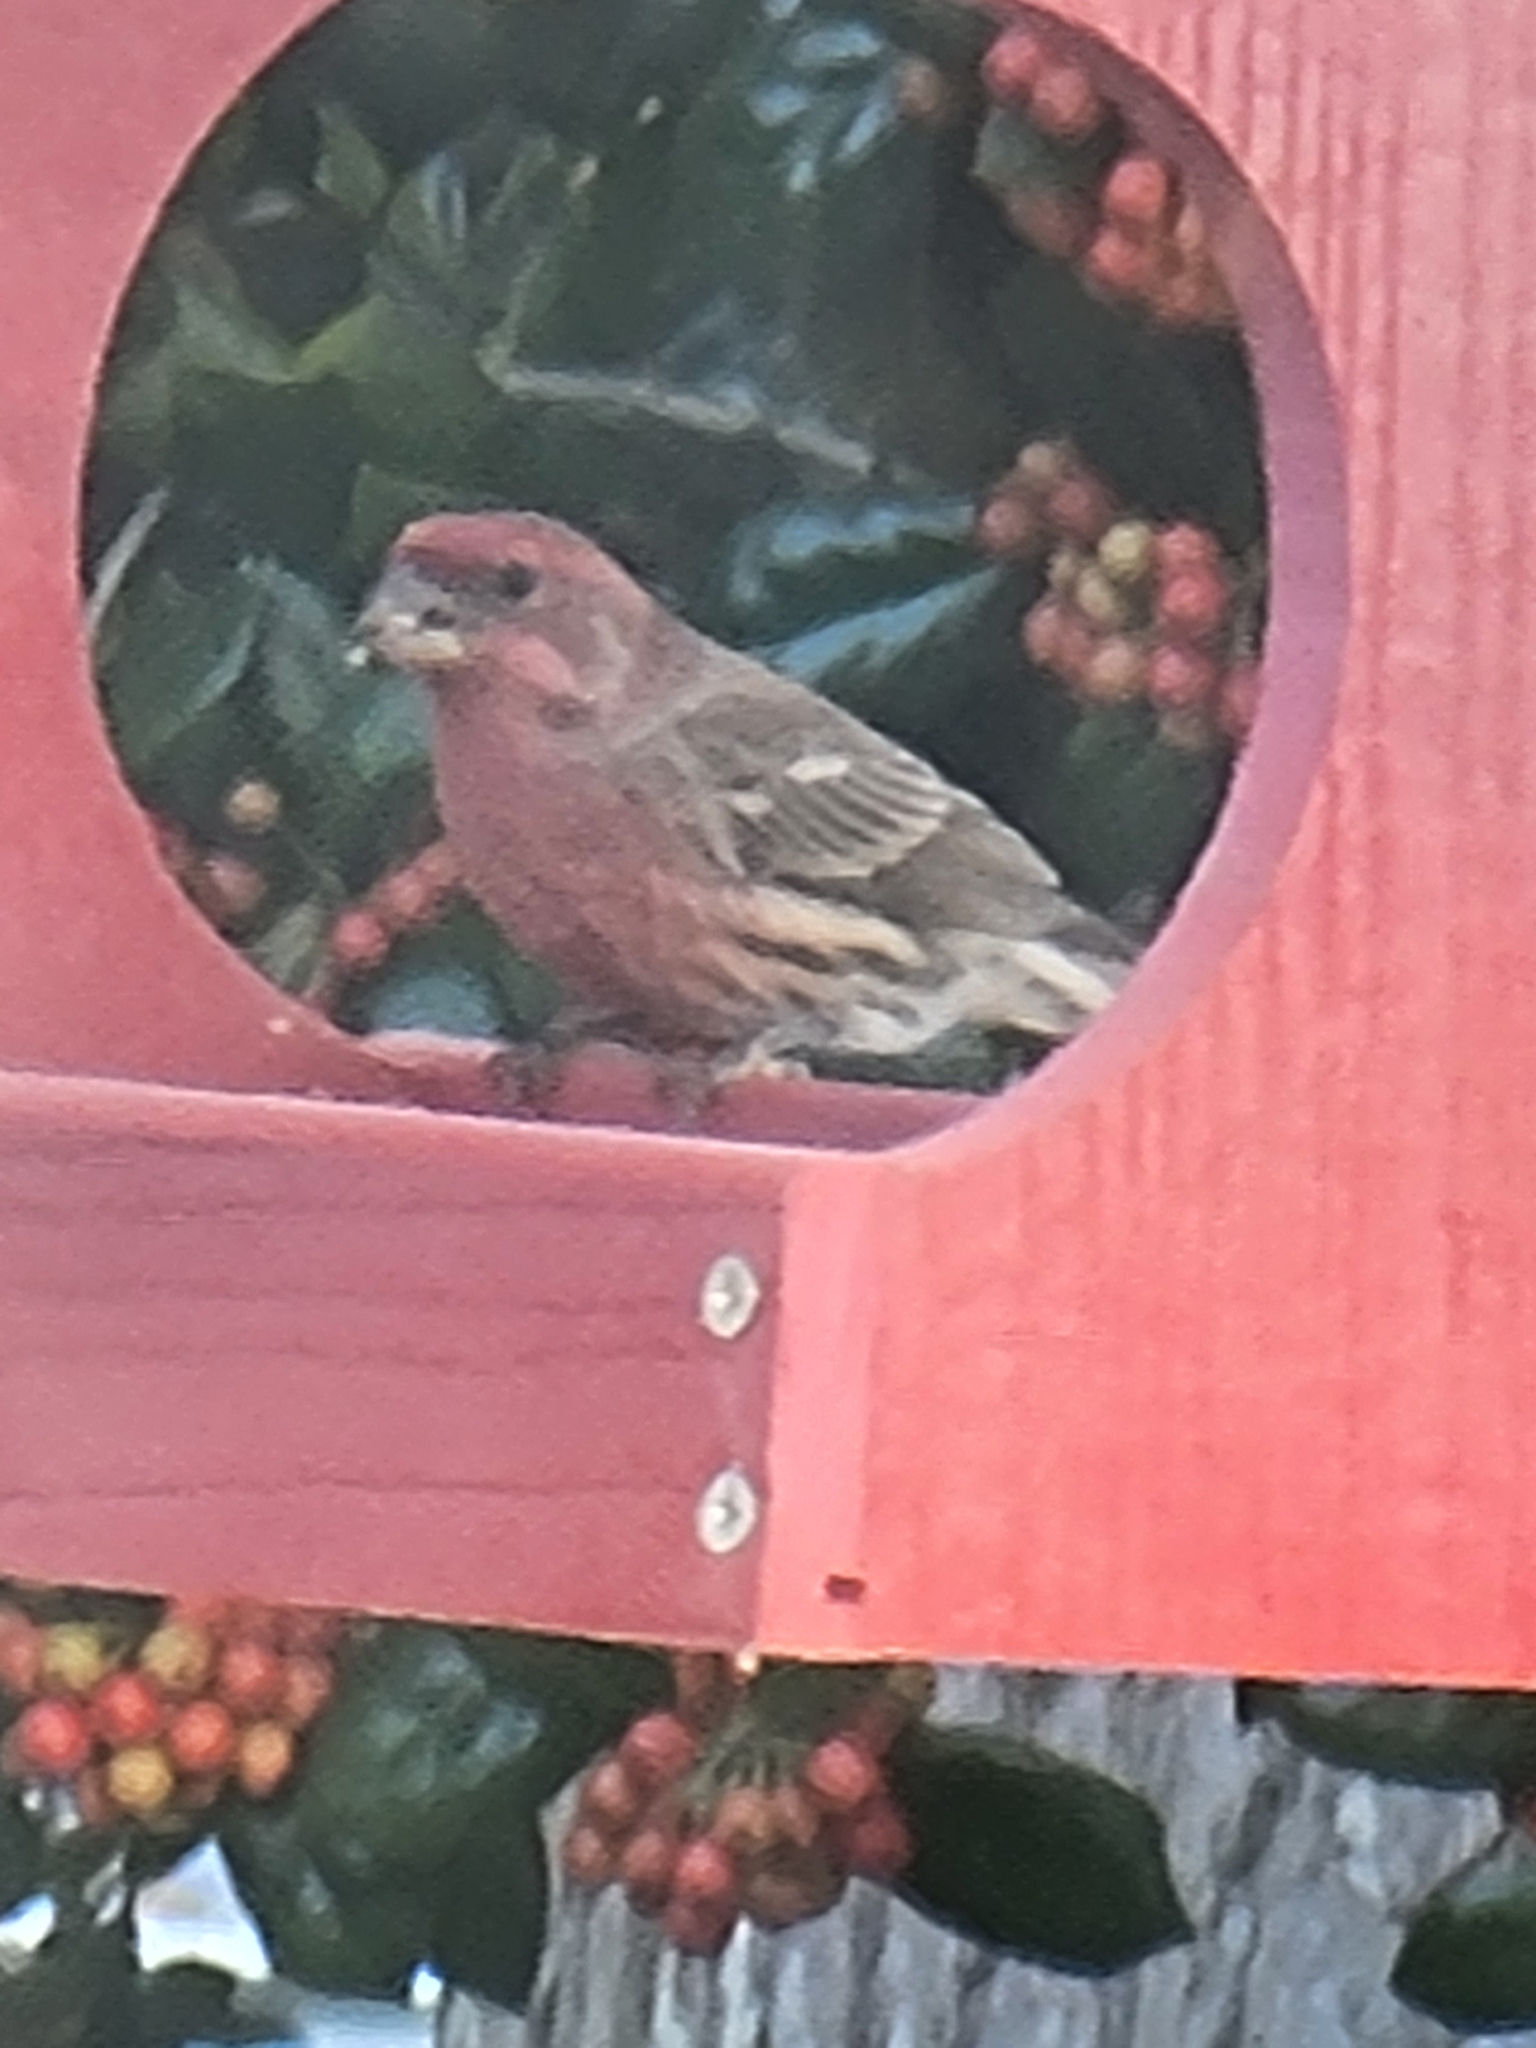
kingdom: Animalia
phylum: Chordata
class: Aves
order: Passeriformes
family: Fringillidae
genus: Haemorhous
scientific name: Haemorhous mexicanus
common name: House finch
